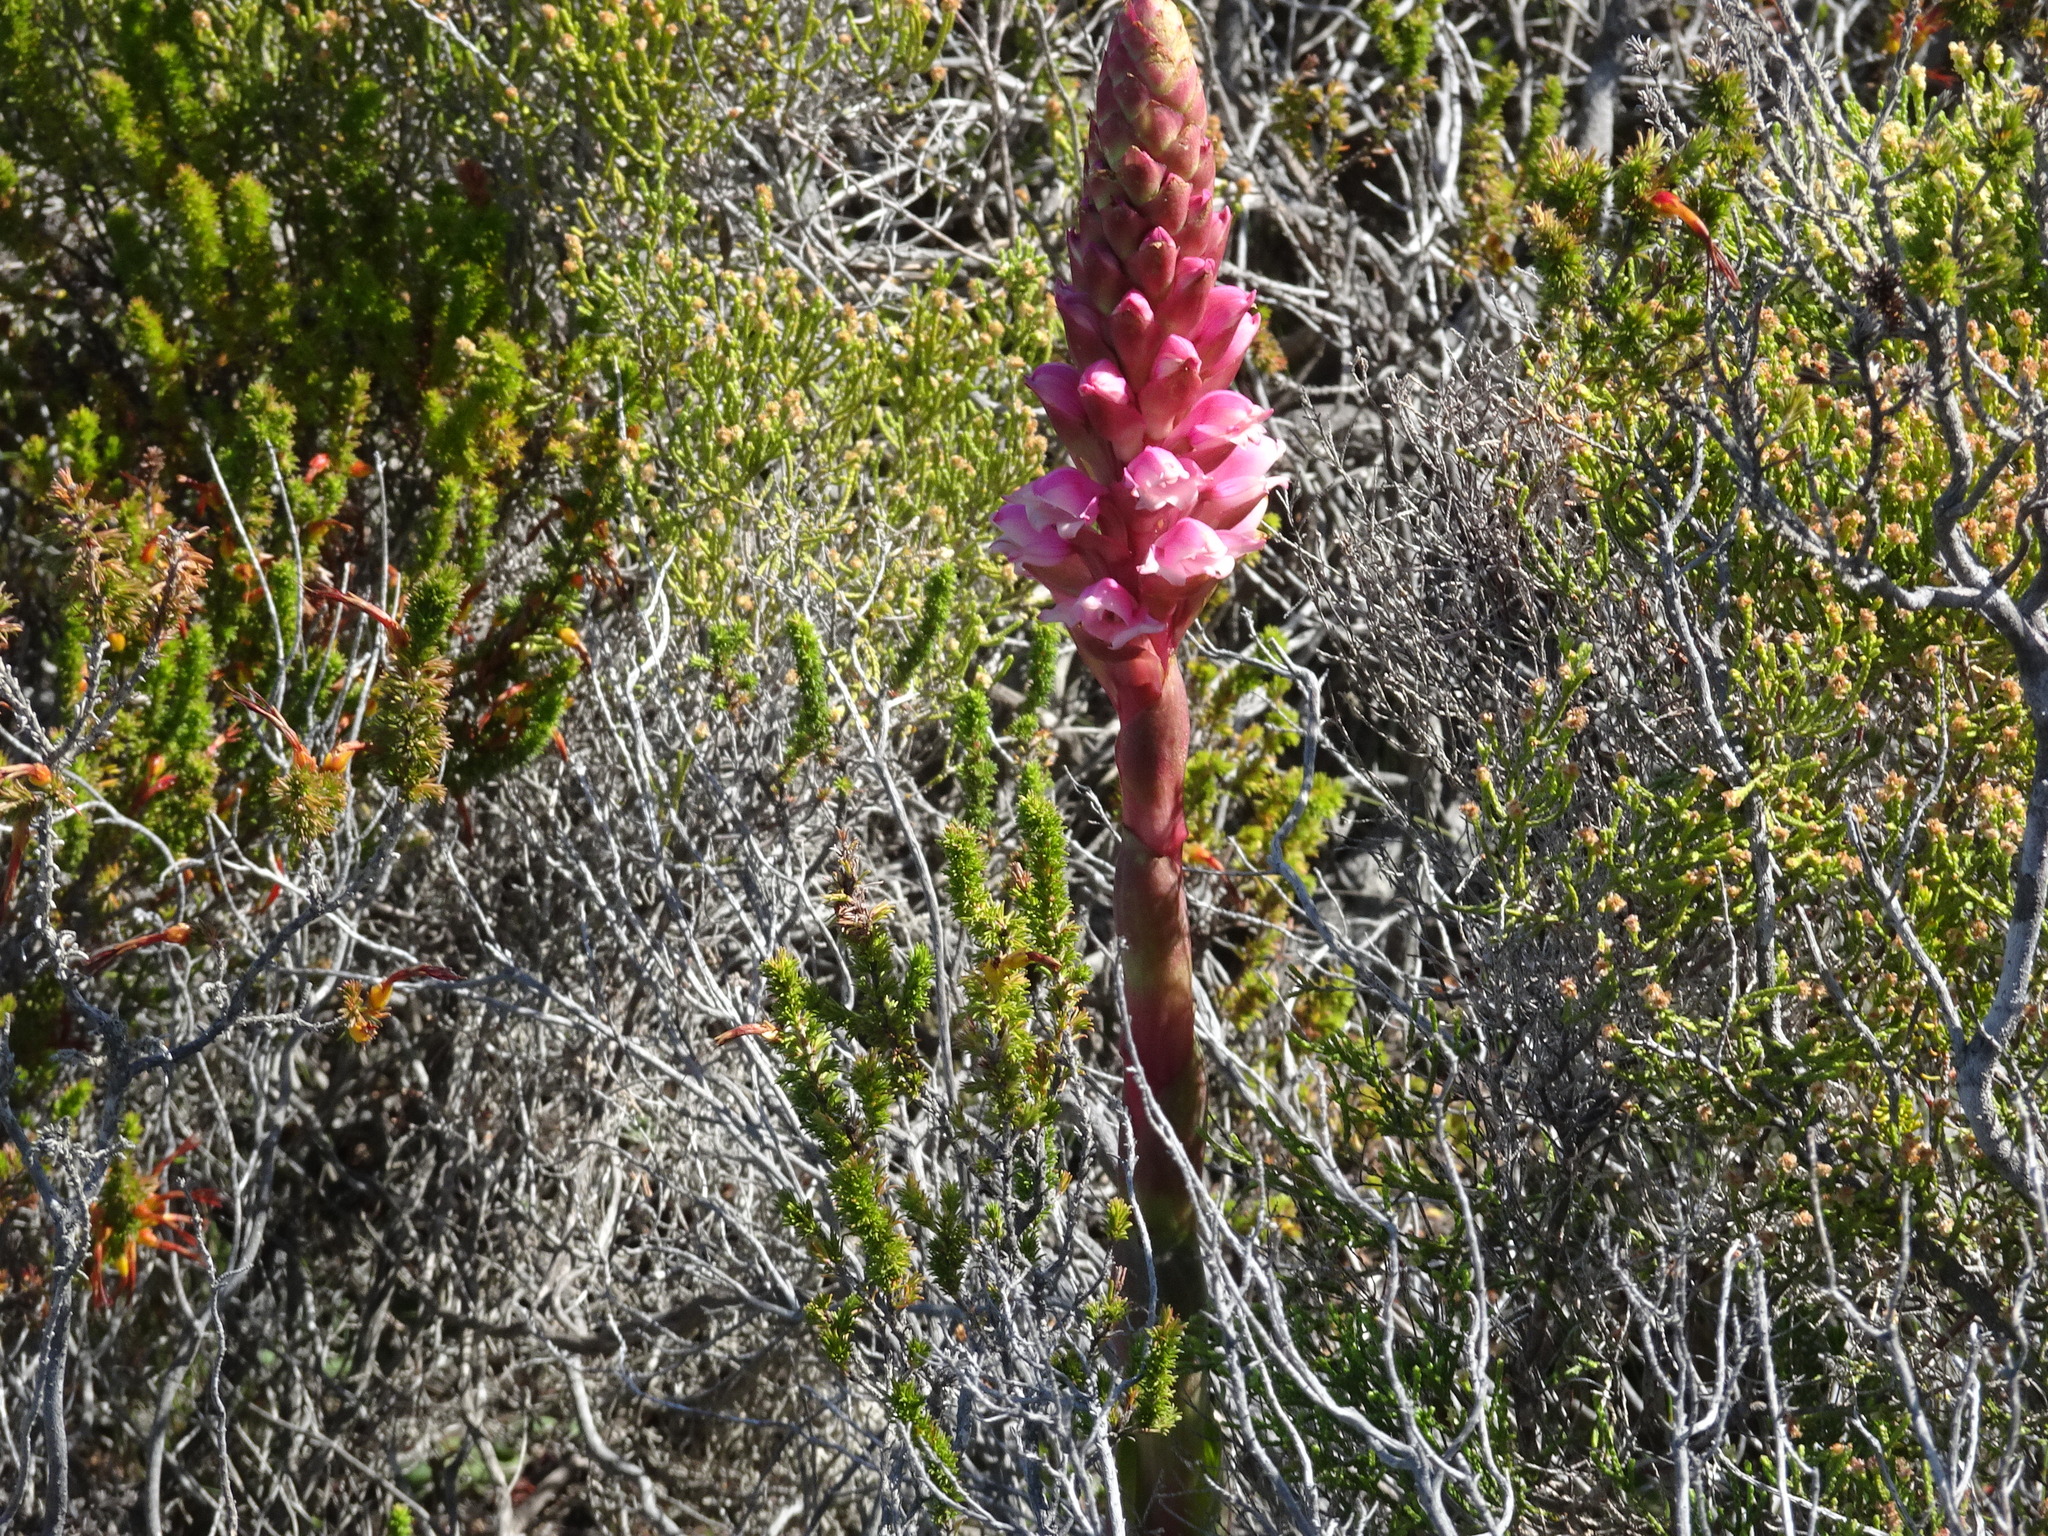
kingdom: Plantae
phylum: Tracheophyta
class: Liliopsida
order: Asparagales
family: Orchidaceae
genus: Satyrium
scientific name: Satyrium carneum
